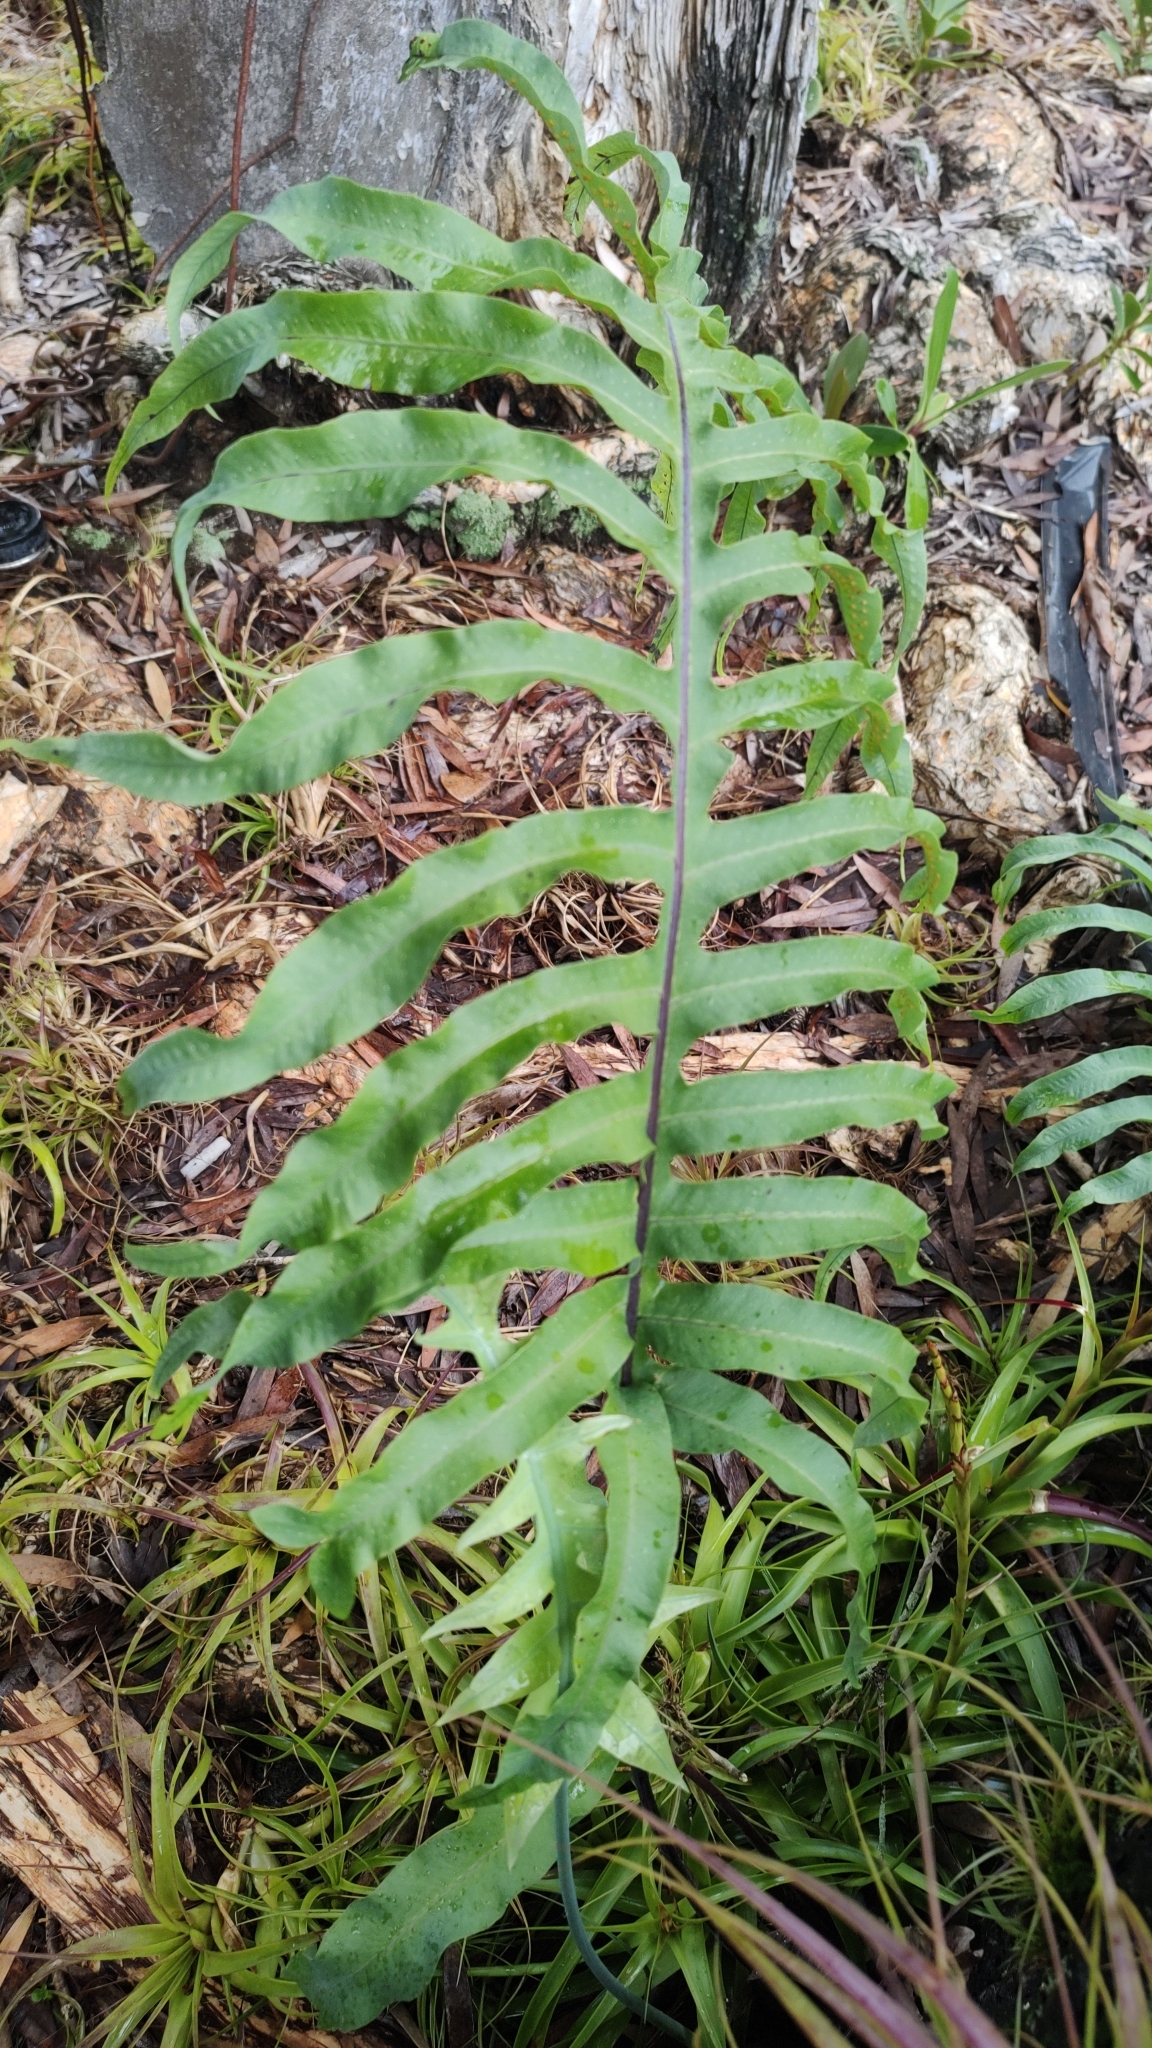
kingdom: Plantae
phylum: Tracheophyta
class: Polypodiopsida
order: Polypodiales
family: Polypodiaceae
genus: Phlebodium
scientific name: Phlebodium aureum
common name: Gold-foot fern
